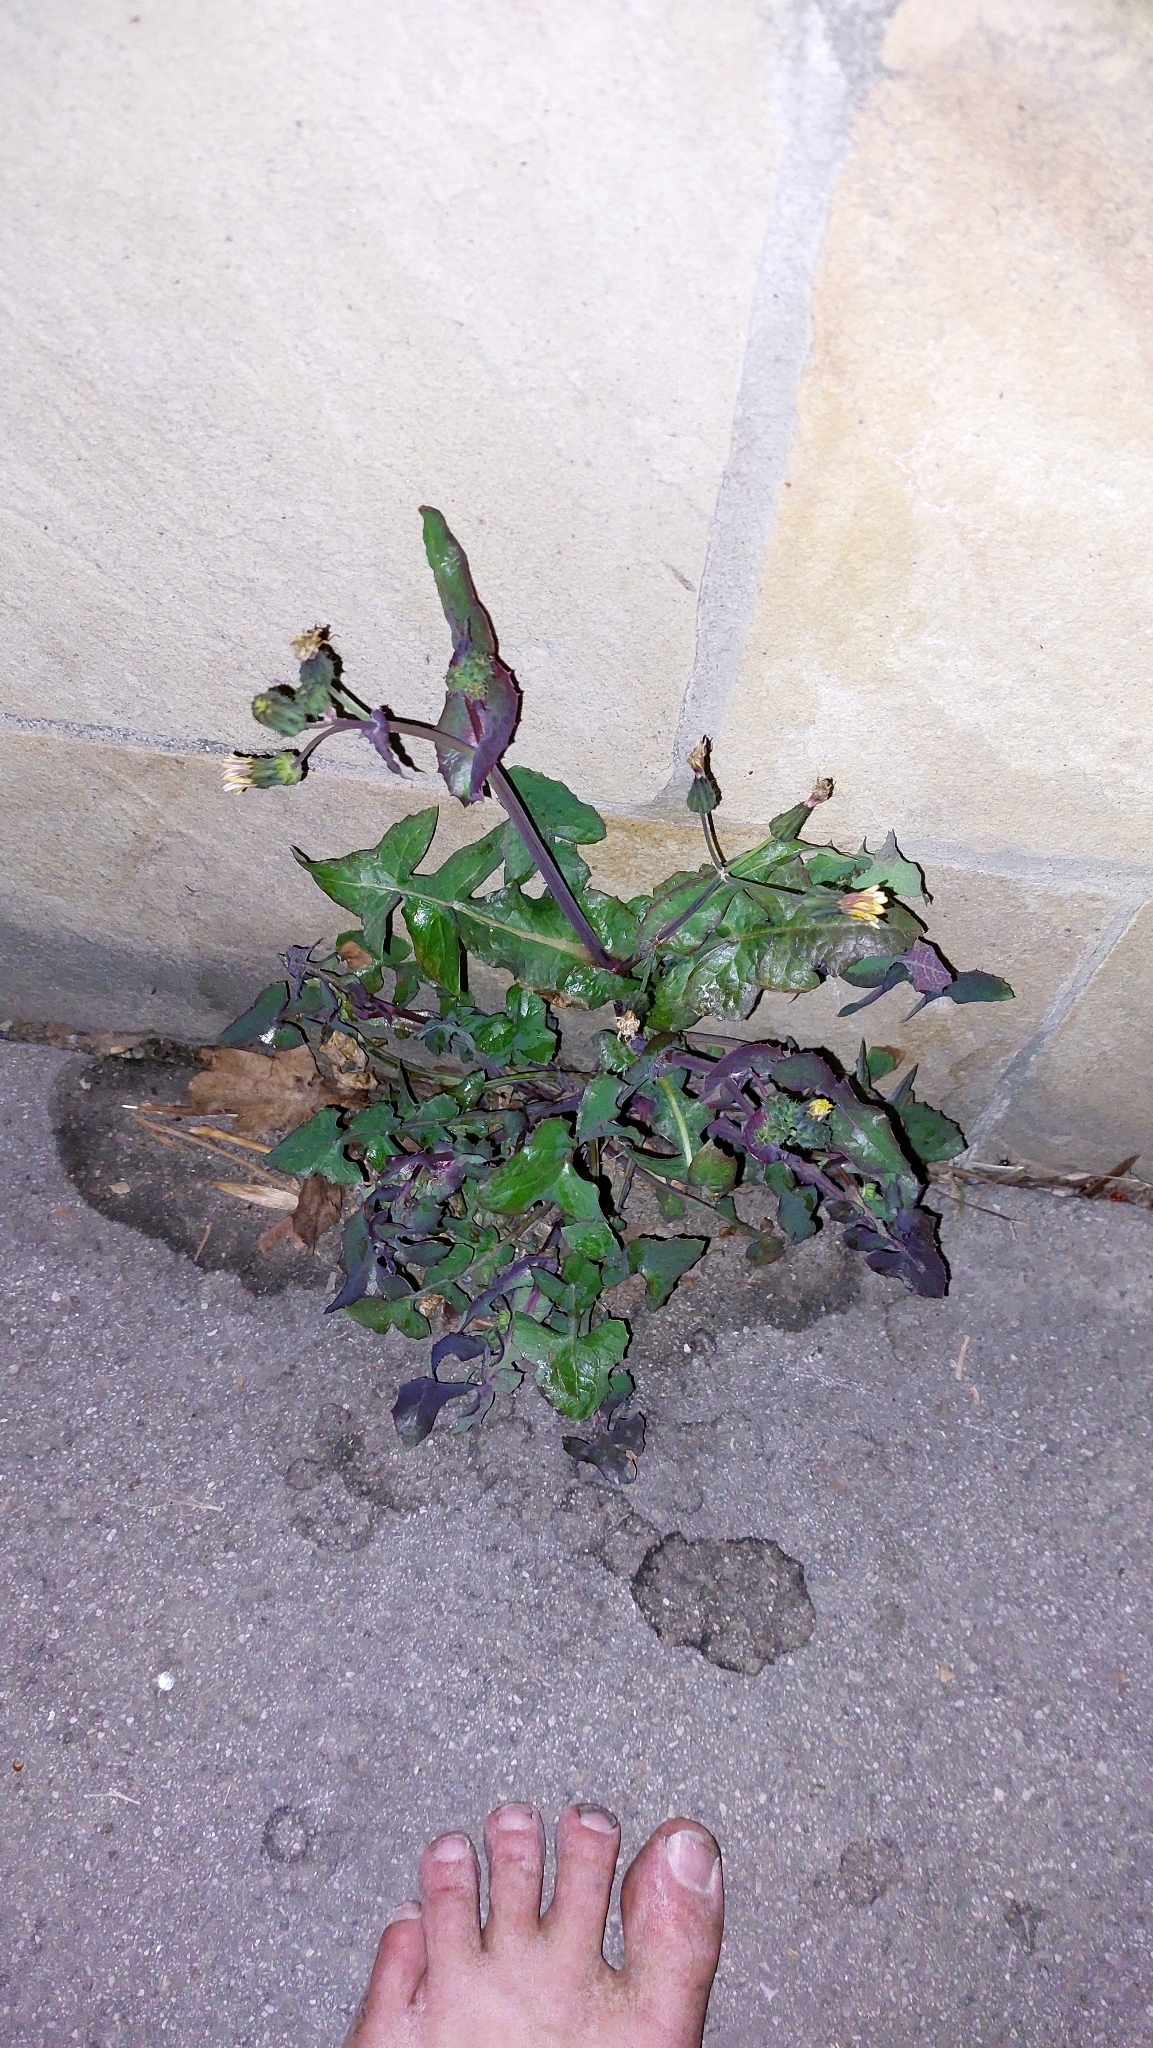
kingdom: Plantae
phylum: Tracheophyta
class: Magnoliopsida
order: Asterales
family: Asteraceae
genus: Sonchus
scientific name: Sonchus oleraceus
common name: Common sowthistle
